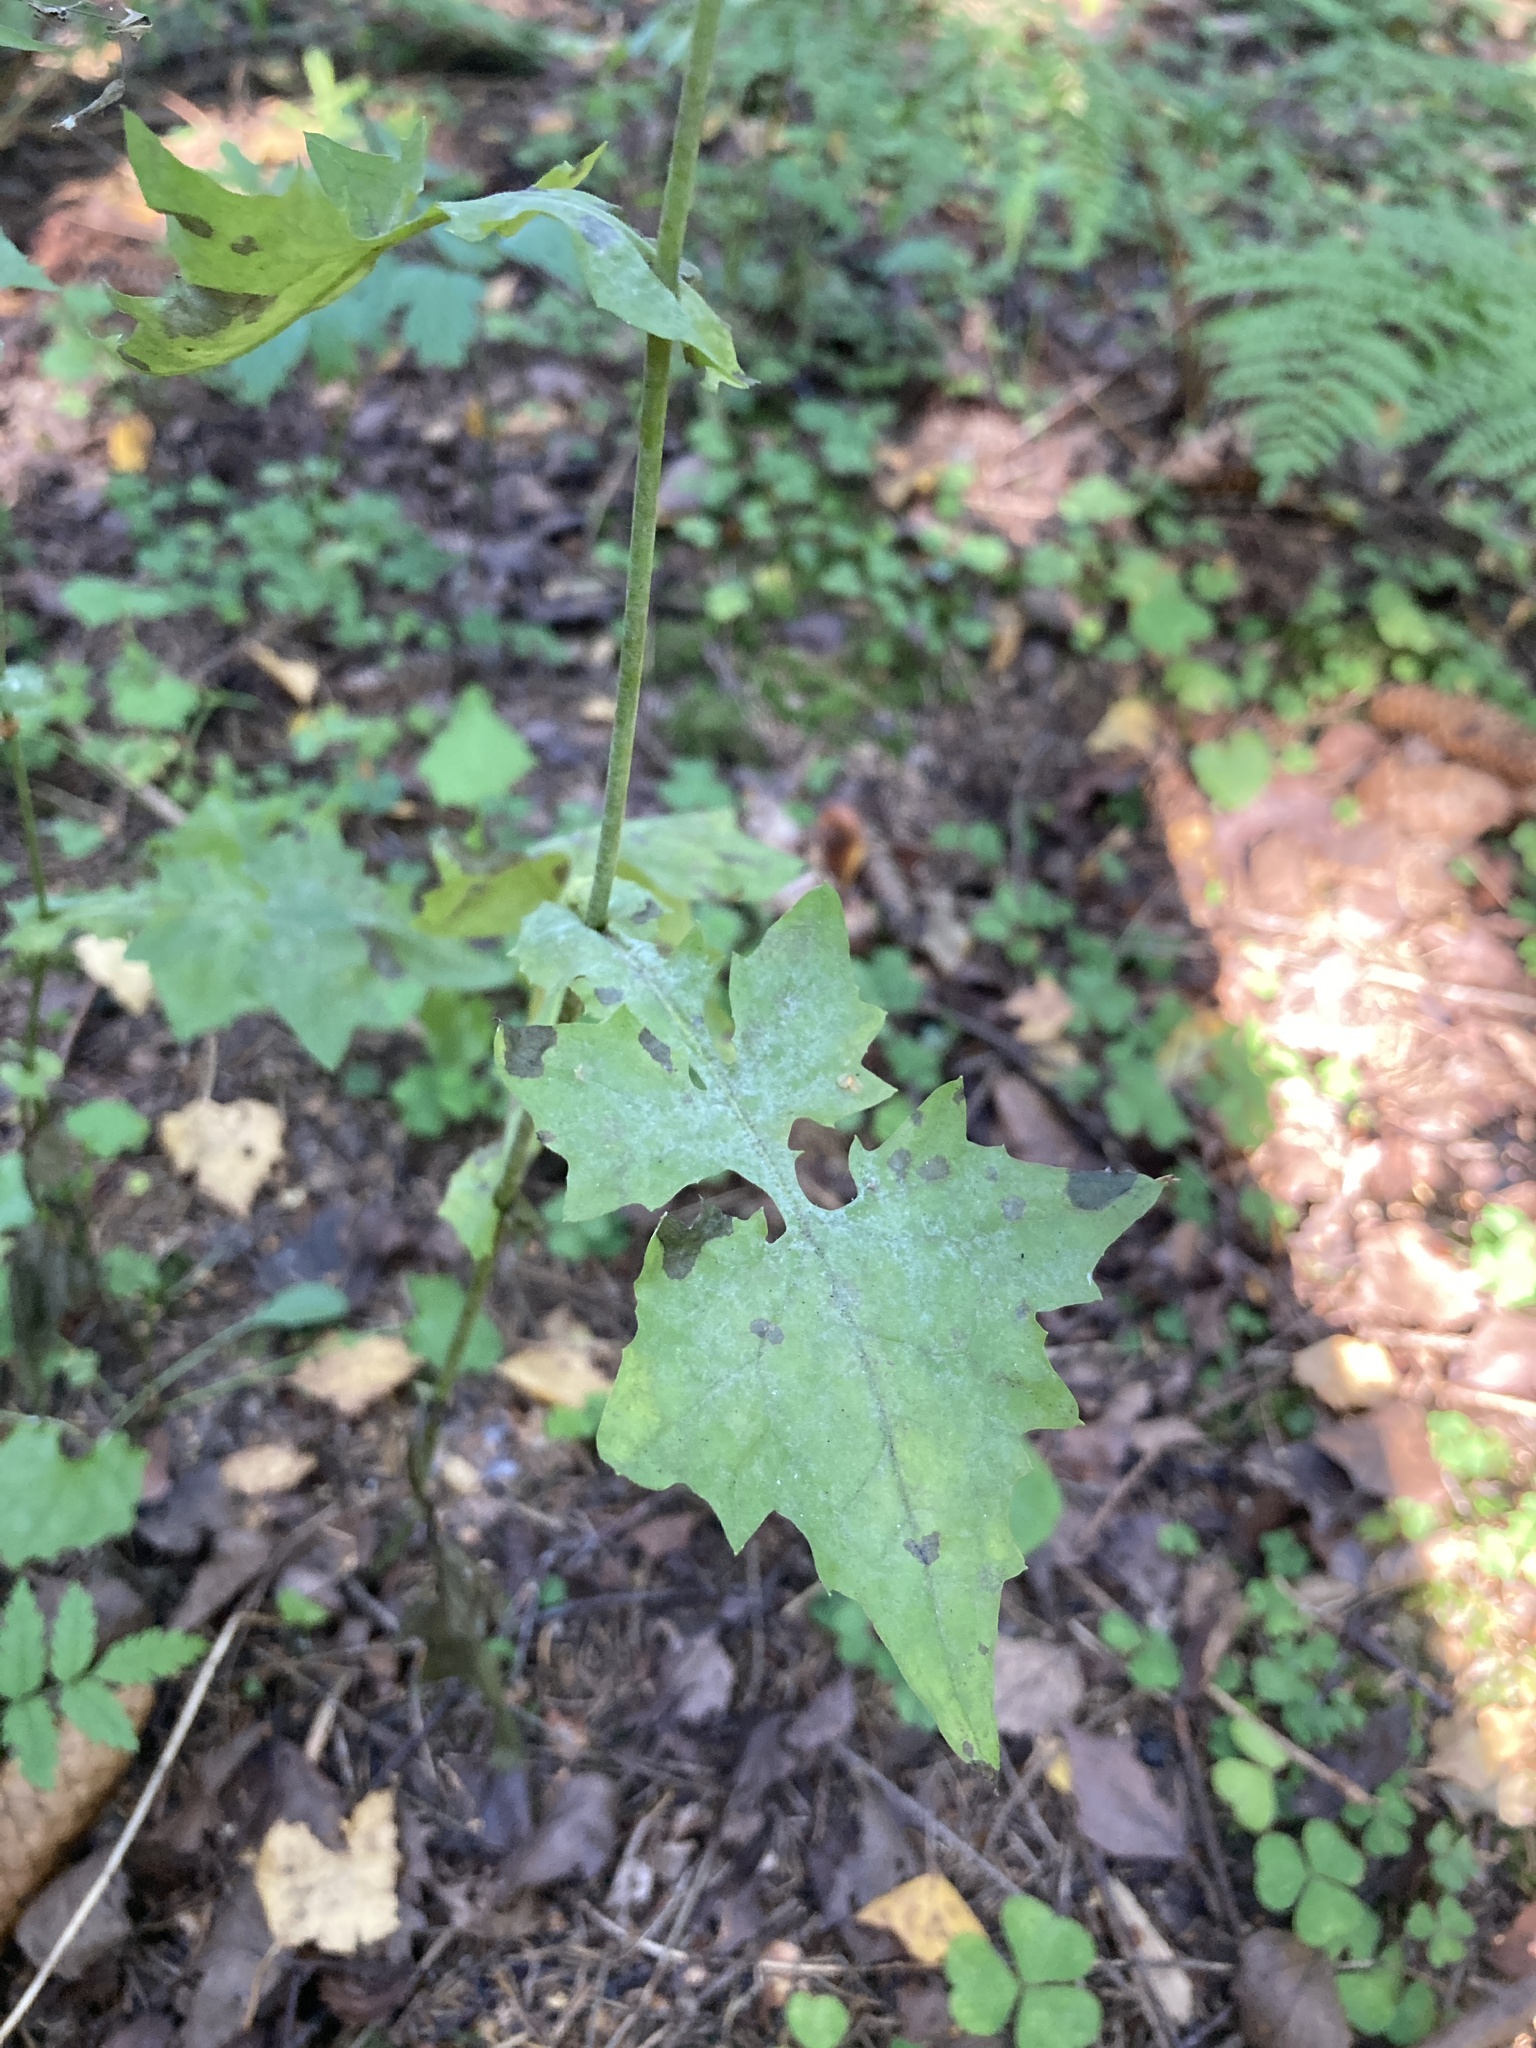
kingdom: Plantae
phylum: Tracheophyta
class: Magnoliopsida
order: Asterales
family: Asteraceae
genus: Mycelis
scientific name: Mycelis muralis
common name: Wall lettuce
